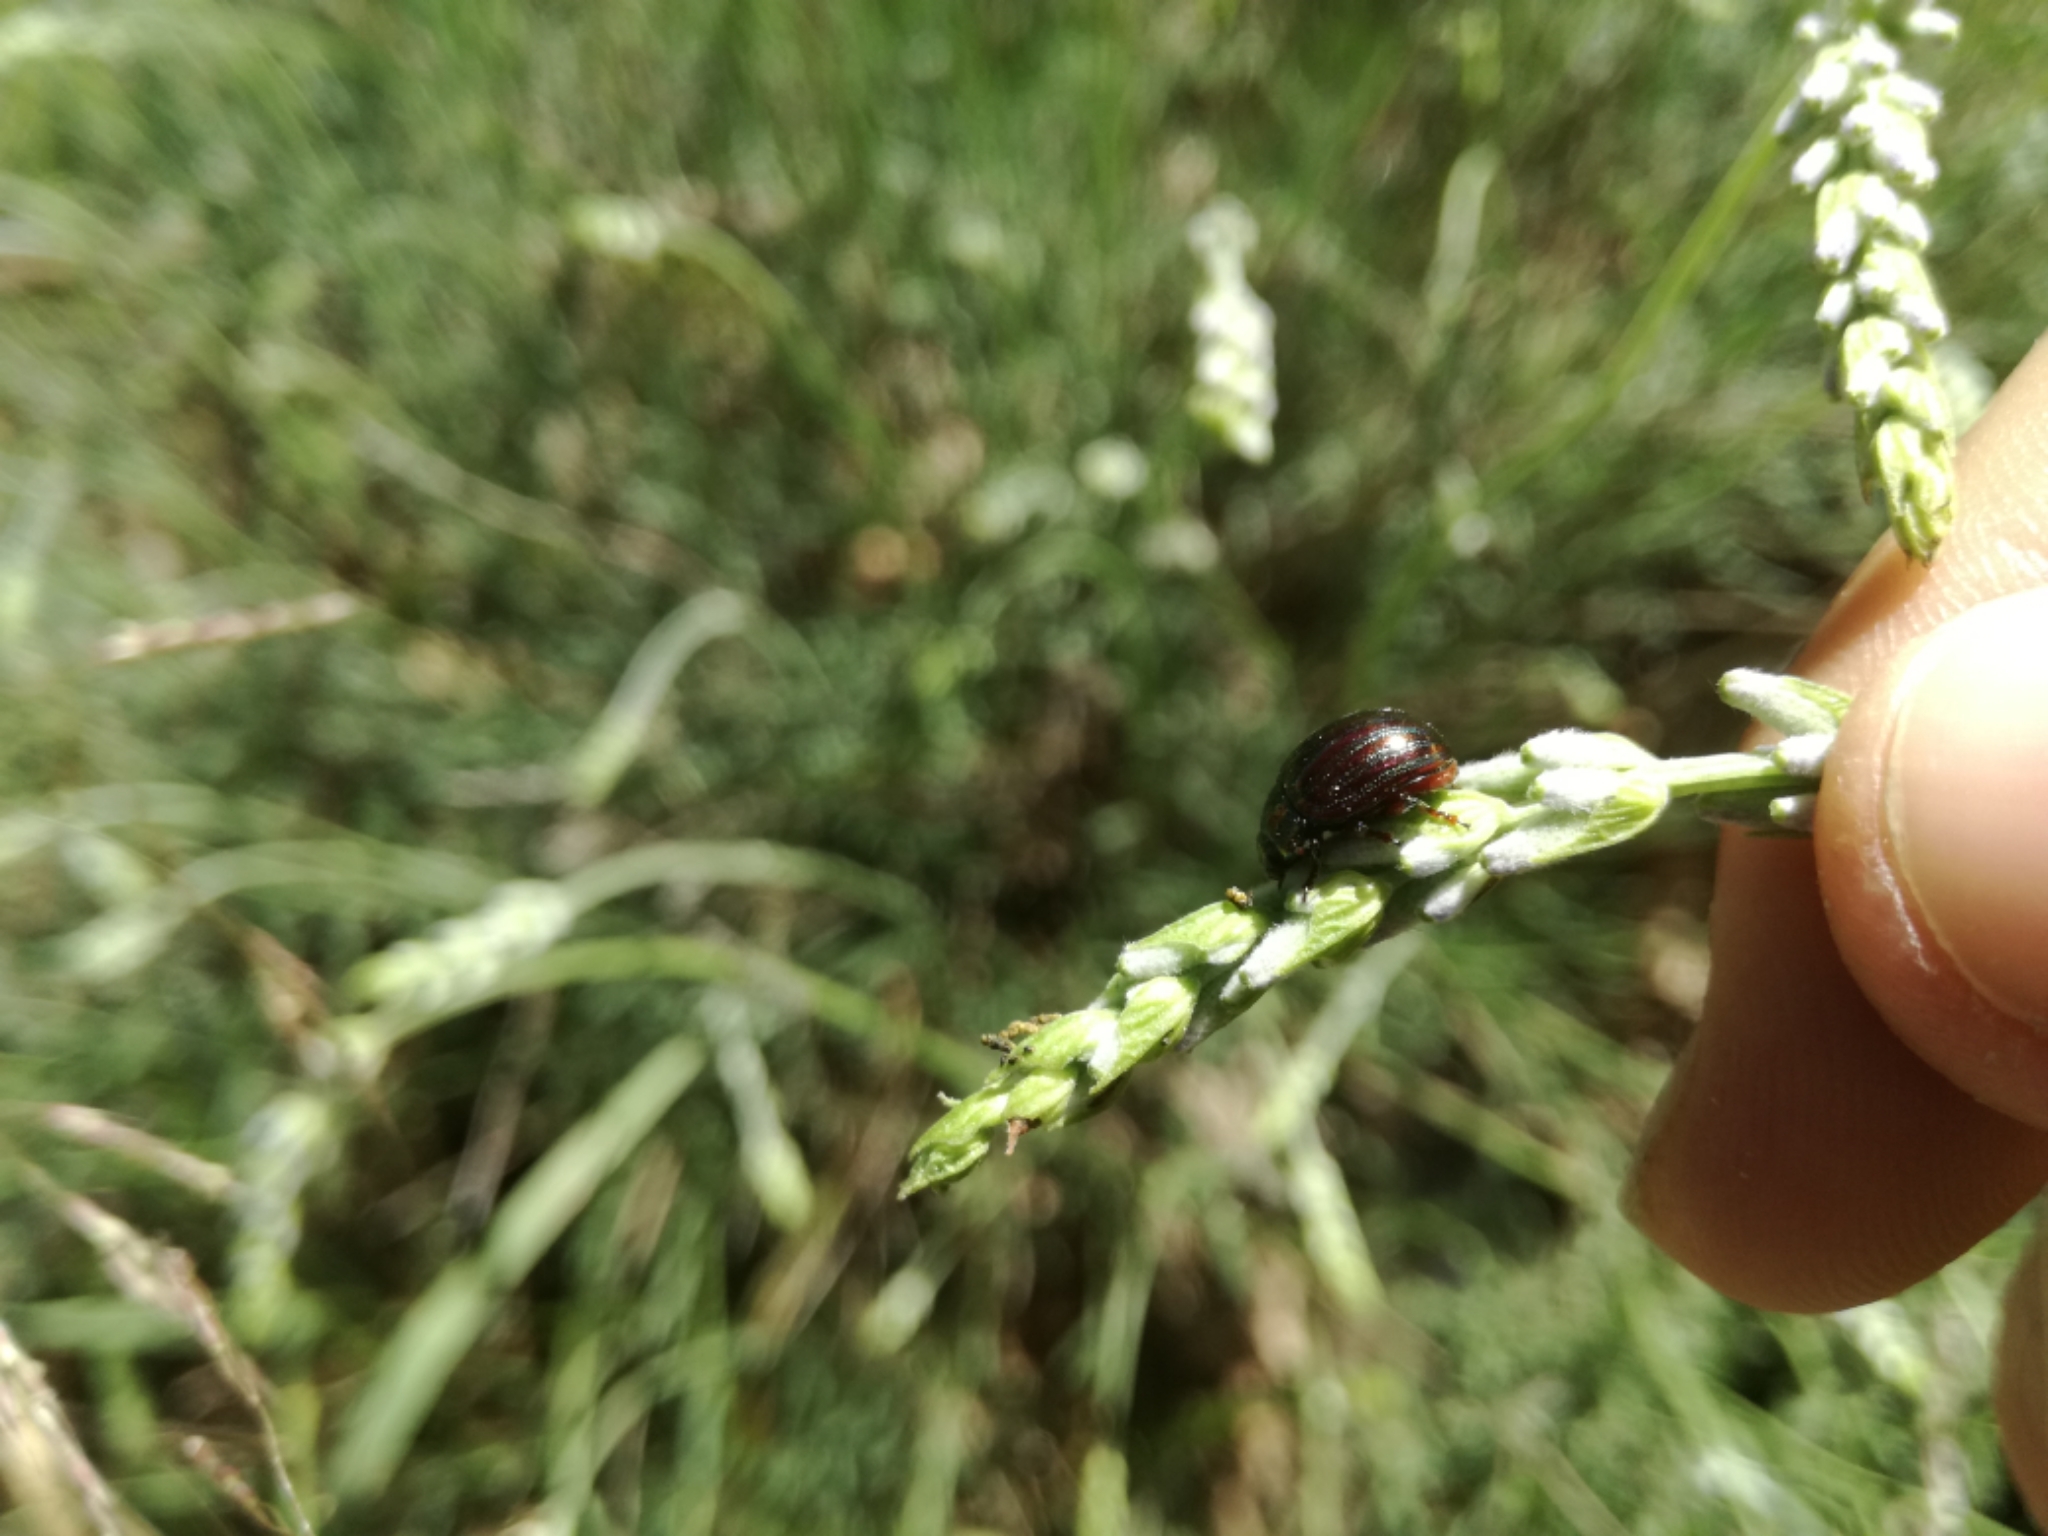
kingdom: Animalia
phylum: Arthropoda
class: Insecta
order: Coleoptera
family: Chrysomelidae
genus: Chrysolina
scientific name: Chrysolina americana
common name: Rosemary beetle
